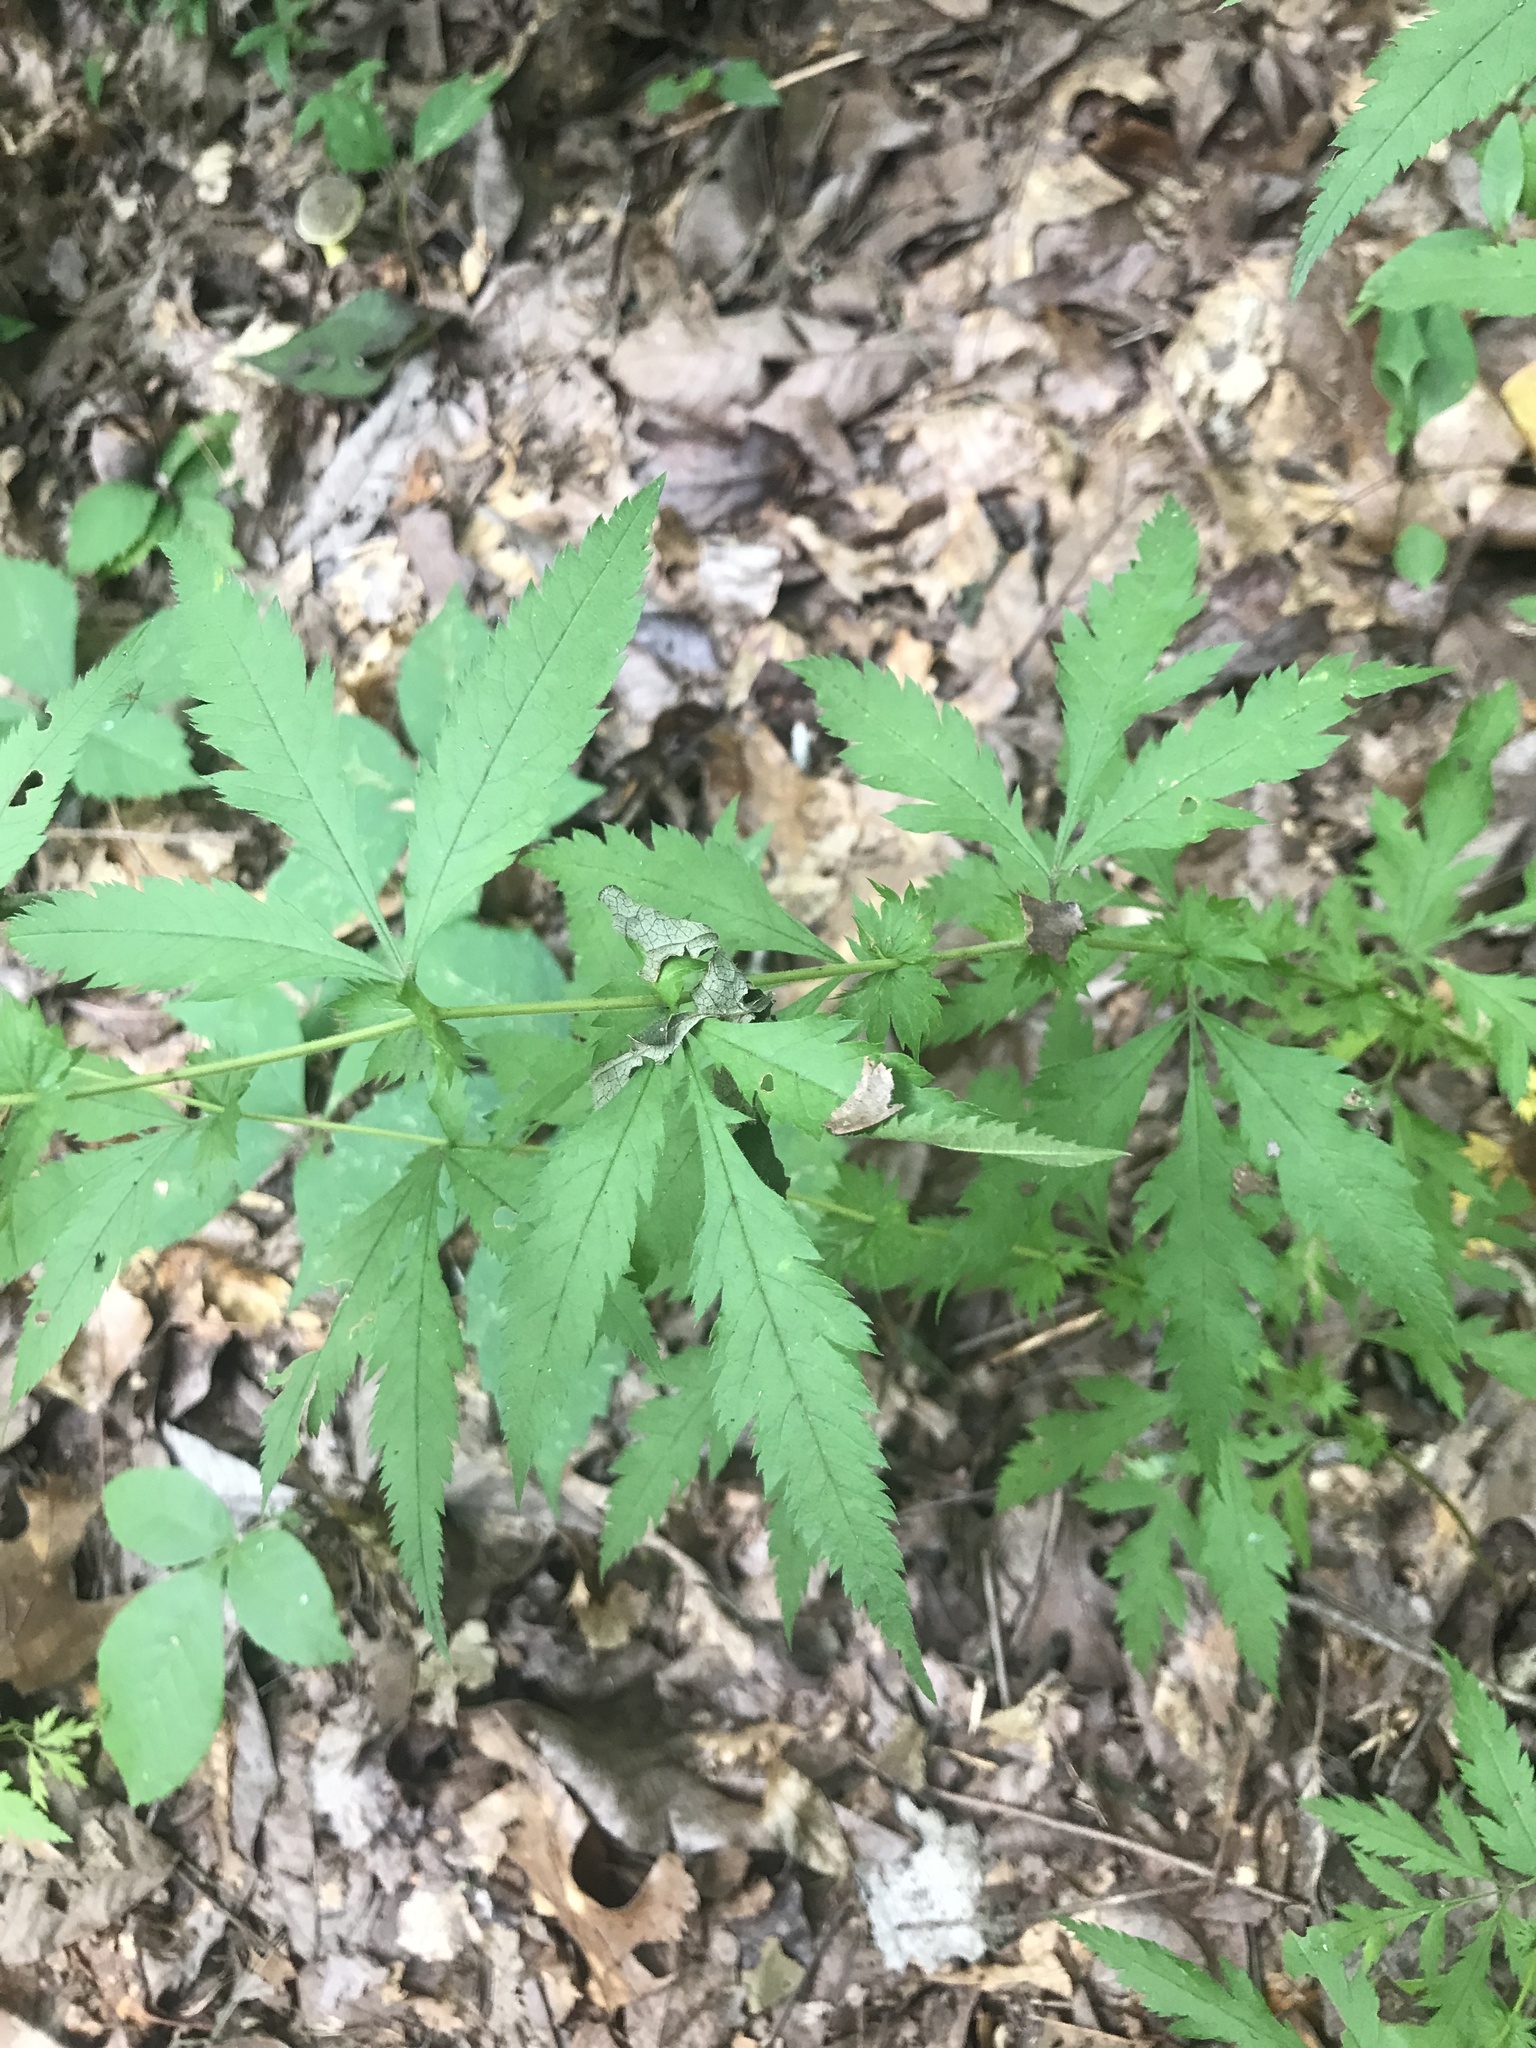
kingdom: Plantae
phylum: Tracheophyta
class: Magnoliopsida
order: Rosales
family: Rosaceae
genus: Gillenia
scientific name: Gillenia stipulata
